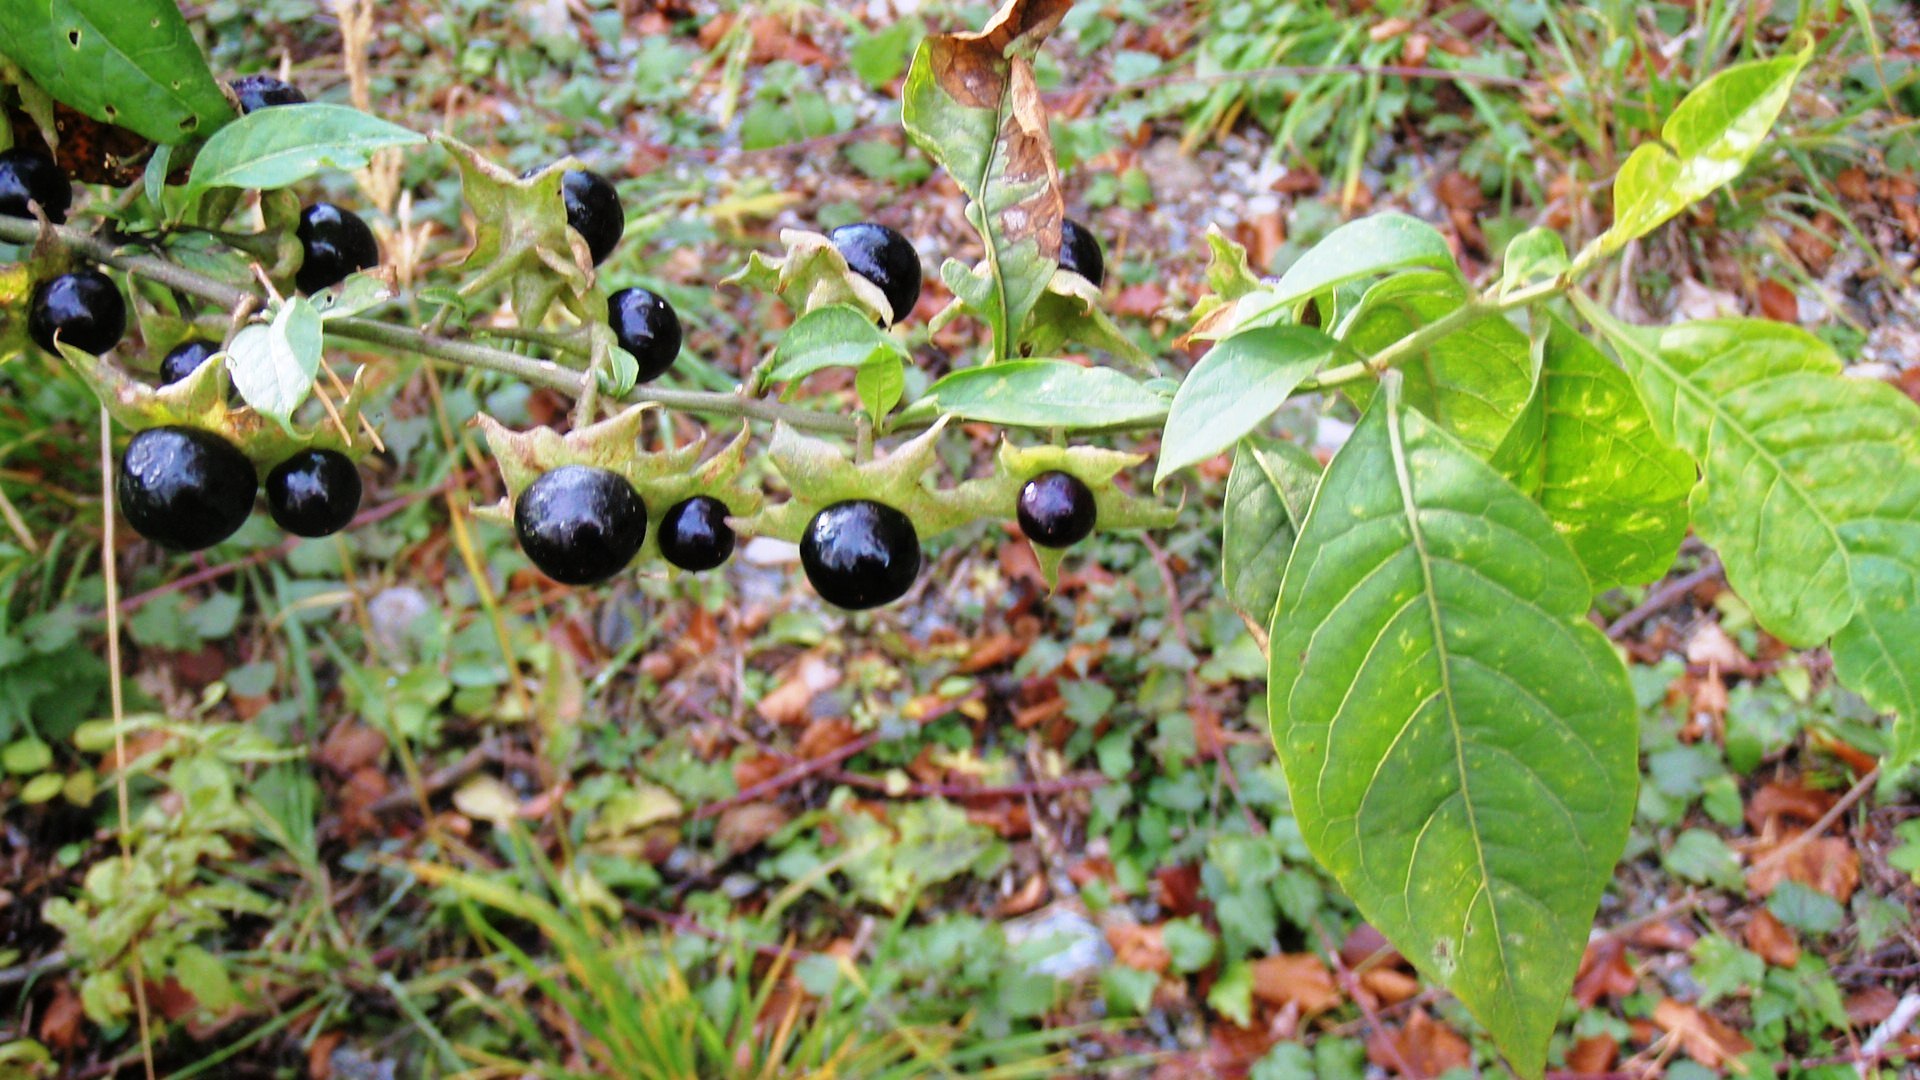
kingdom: Plantae
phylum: Tracheophyta
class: Magnoliopsida
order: Solanales
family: Solanaceae
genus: Atropa
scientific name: Atropa belladonna
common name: Deadly nightshade
